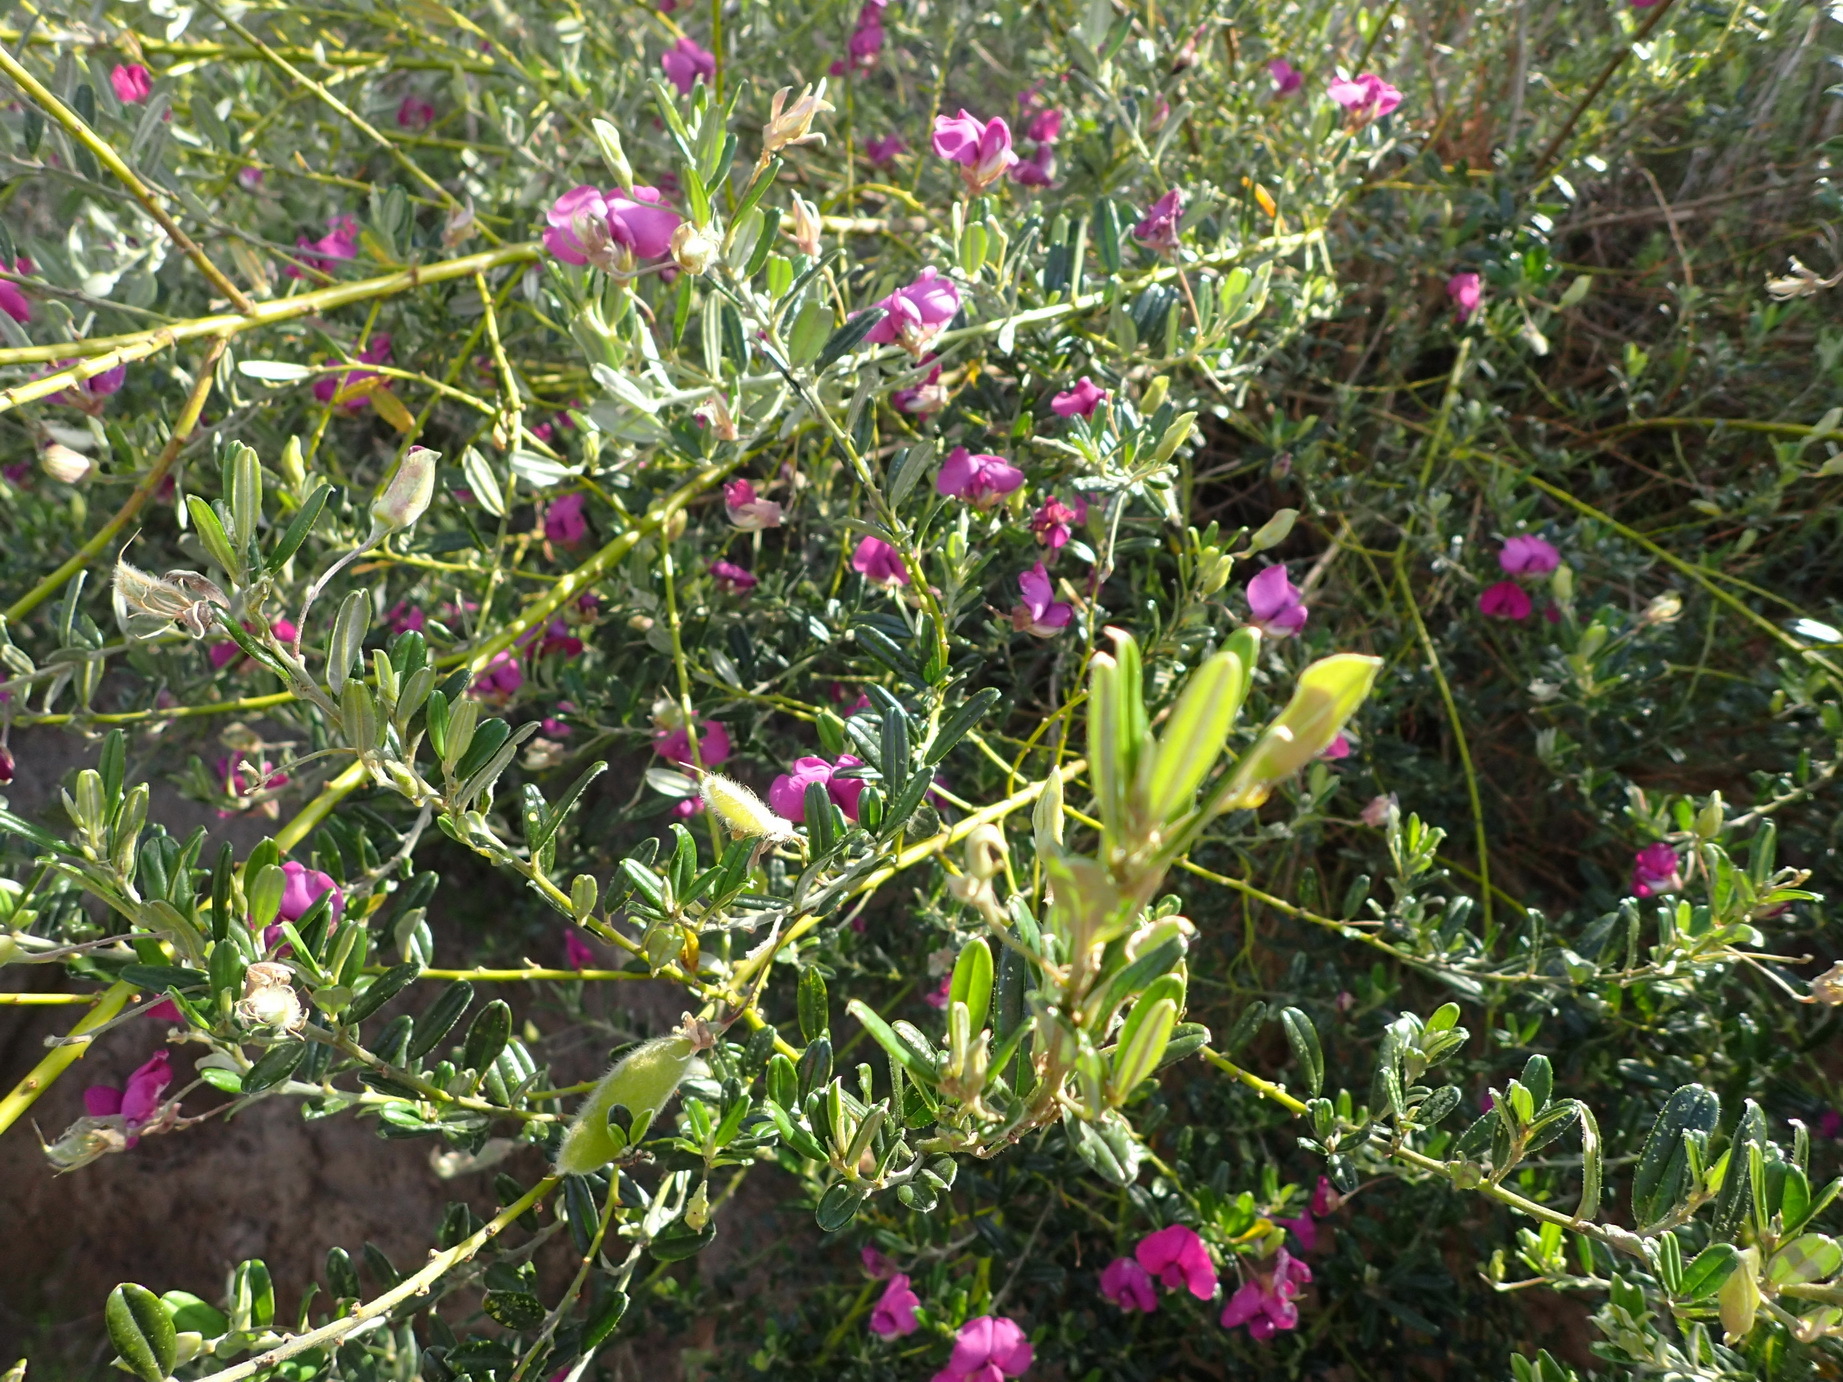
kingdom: Plantae
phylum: Tracheophyta
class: Magnoliopsida
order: Fabales
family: Fabaceae
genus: Podalyria
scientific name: Podalyria buxifolia
